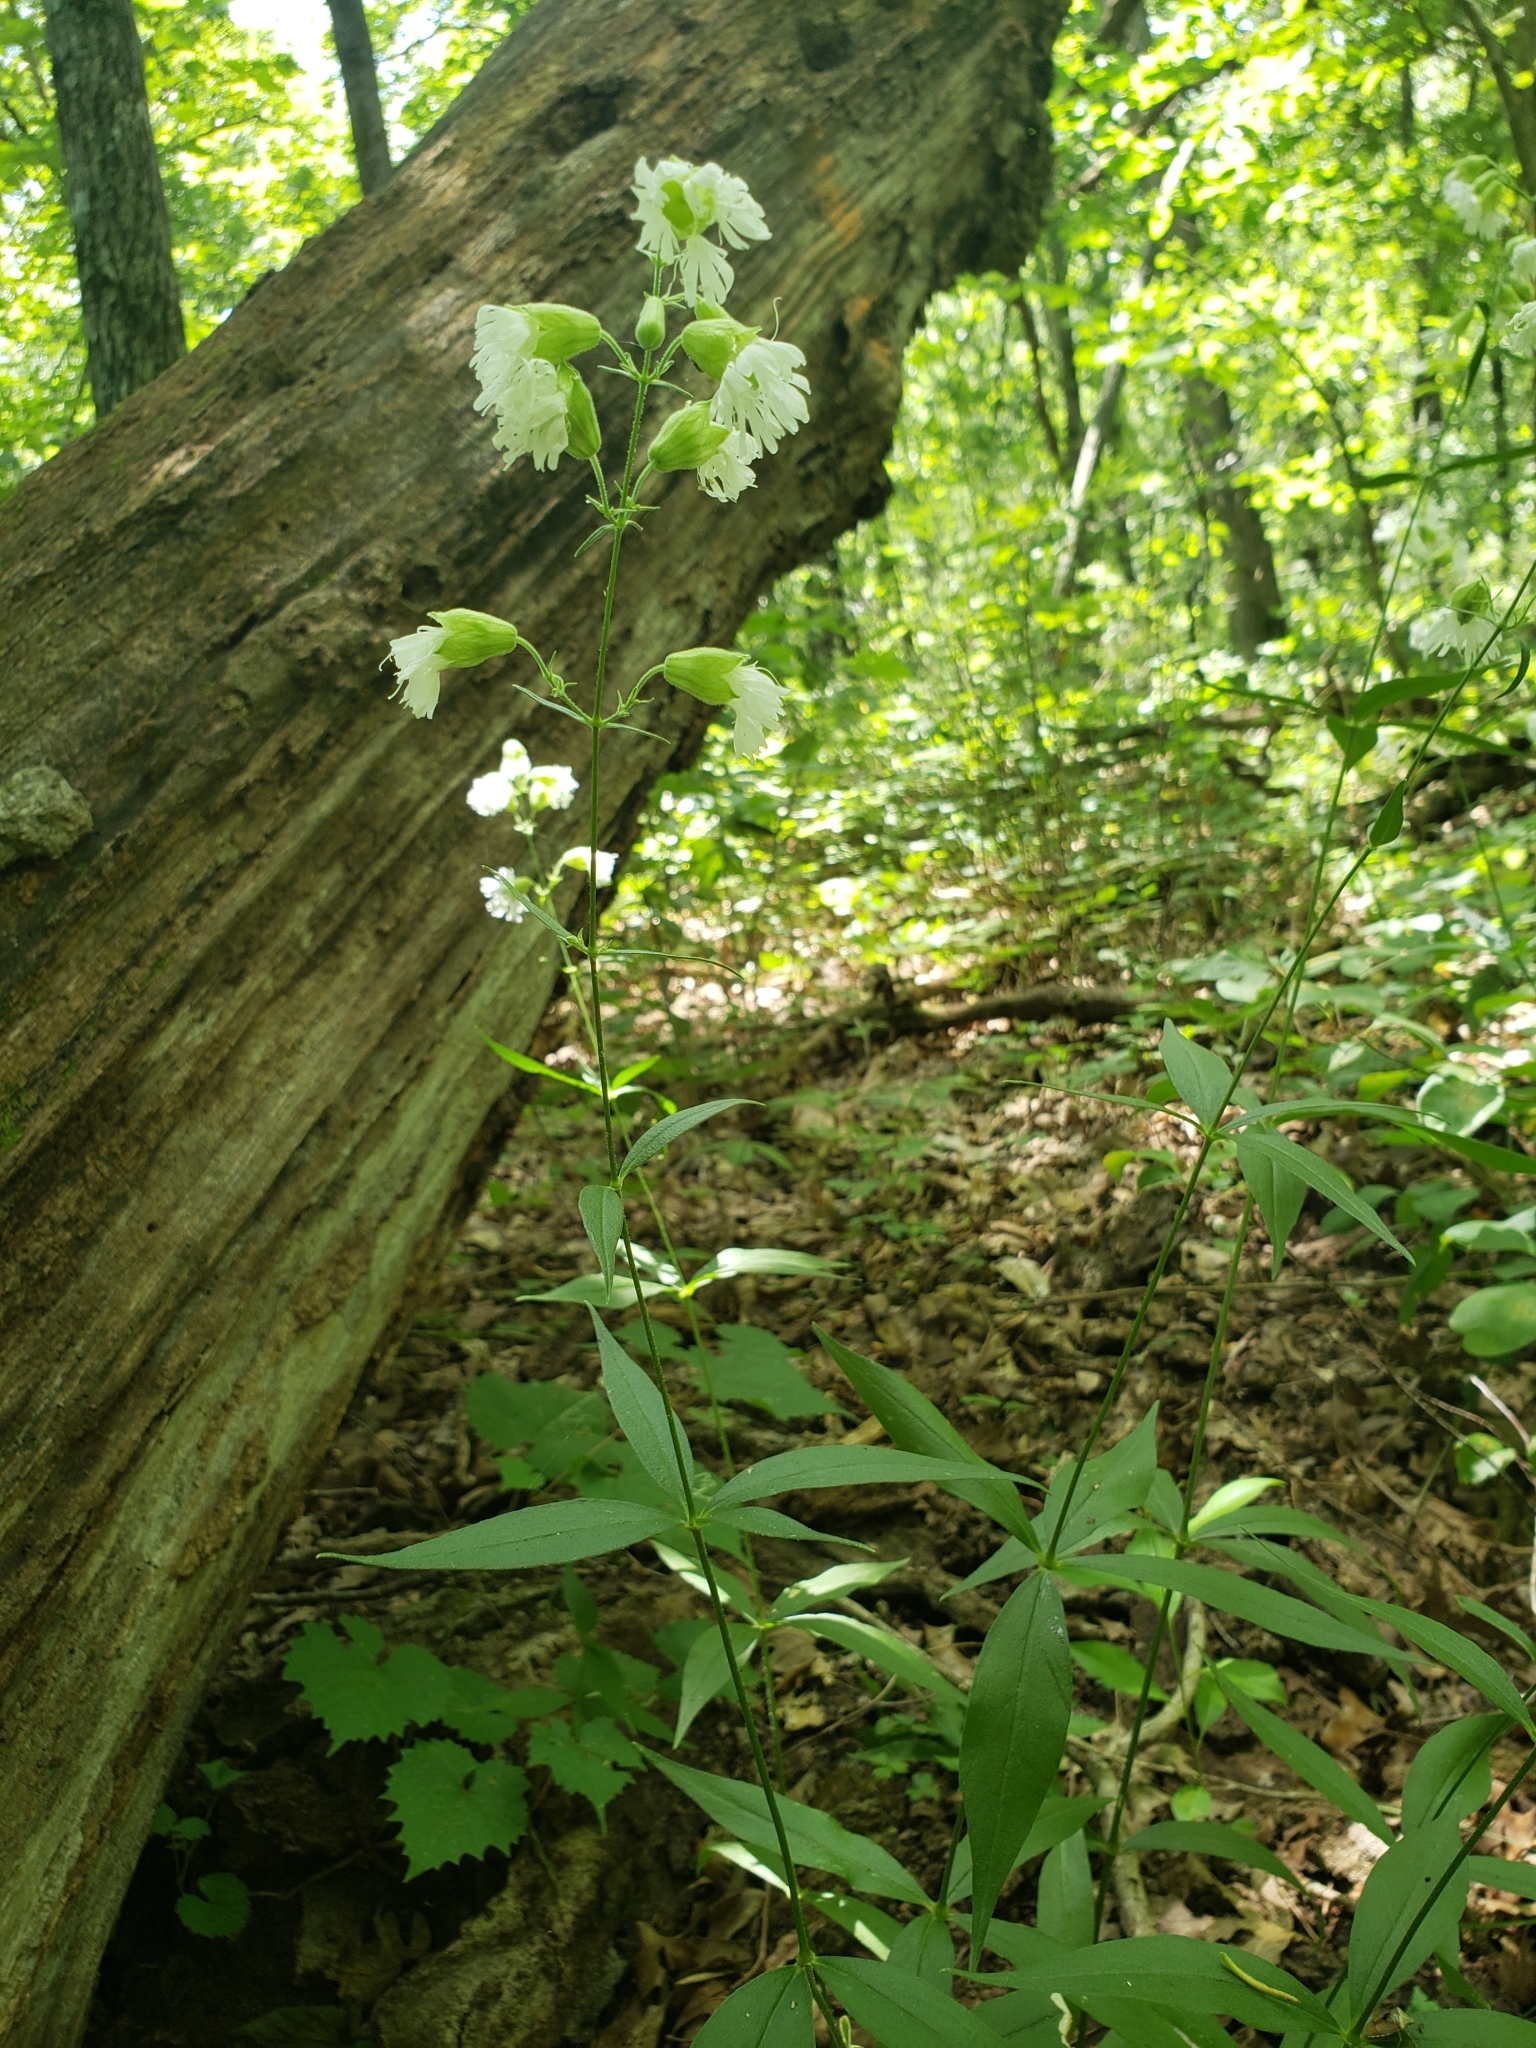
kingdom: Plantae
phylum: Tracheophyta
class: Magnoliopsida
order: Caryophyllales
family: Caryophyllaceae
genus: Silene
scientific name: Silene stellata
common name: Starry campion
